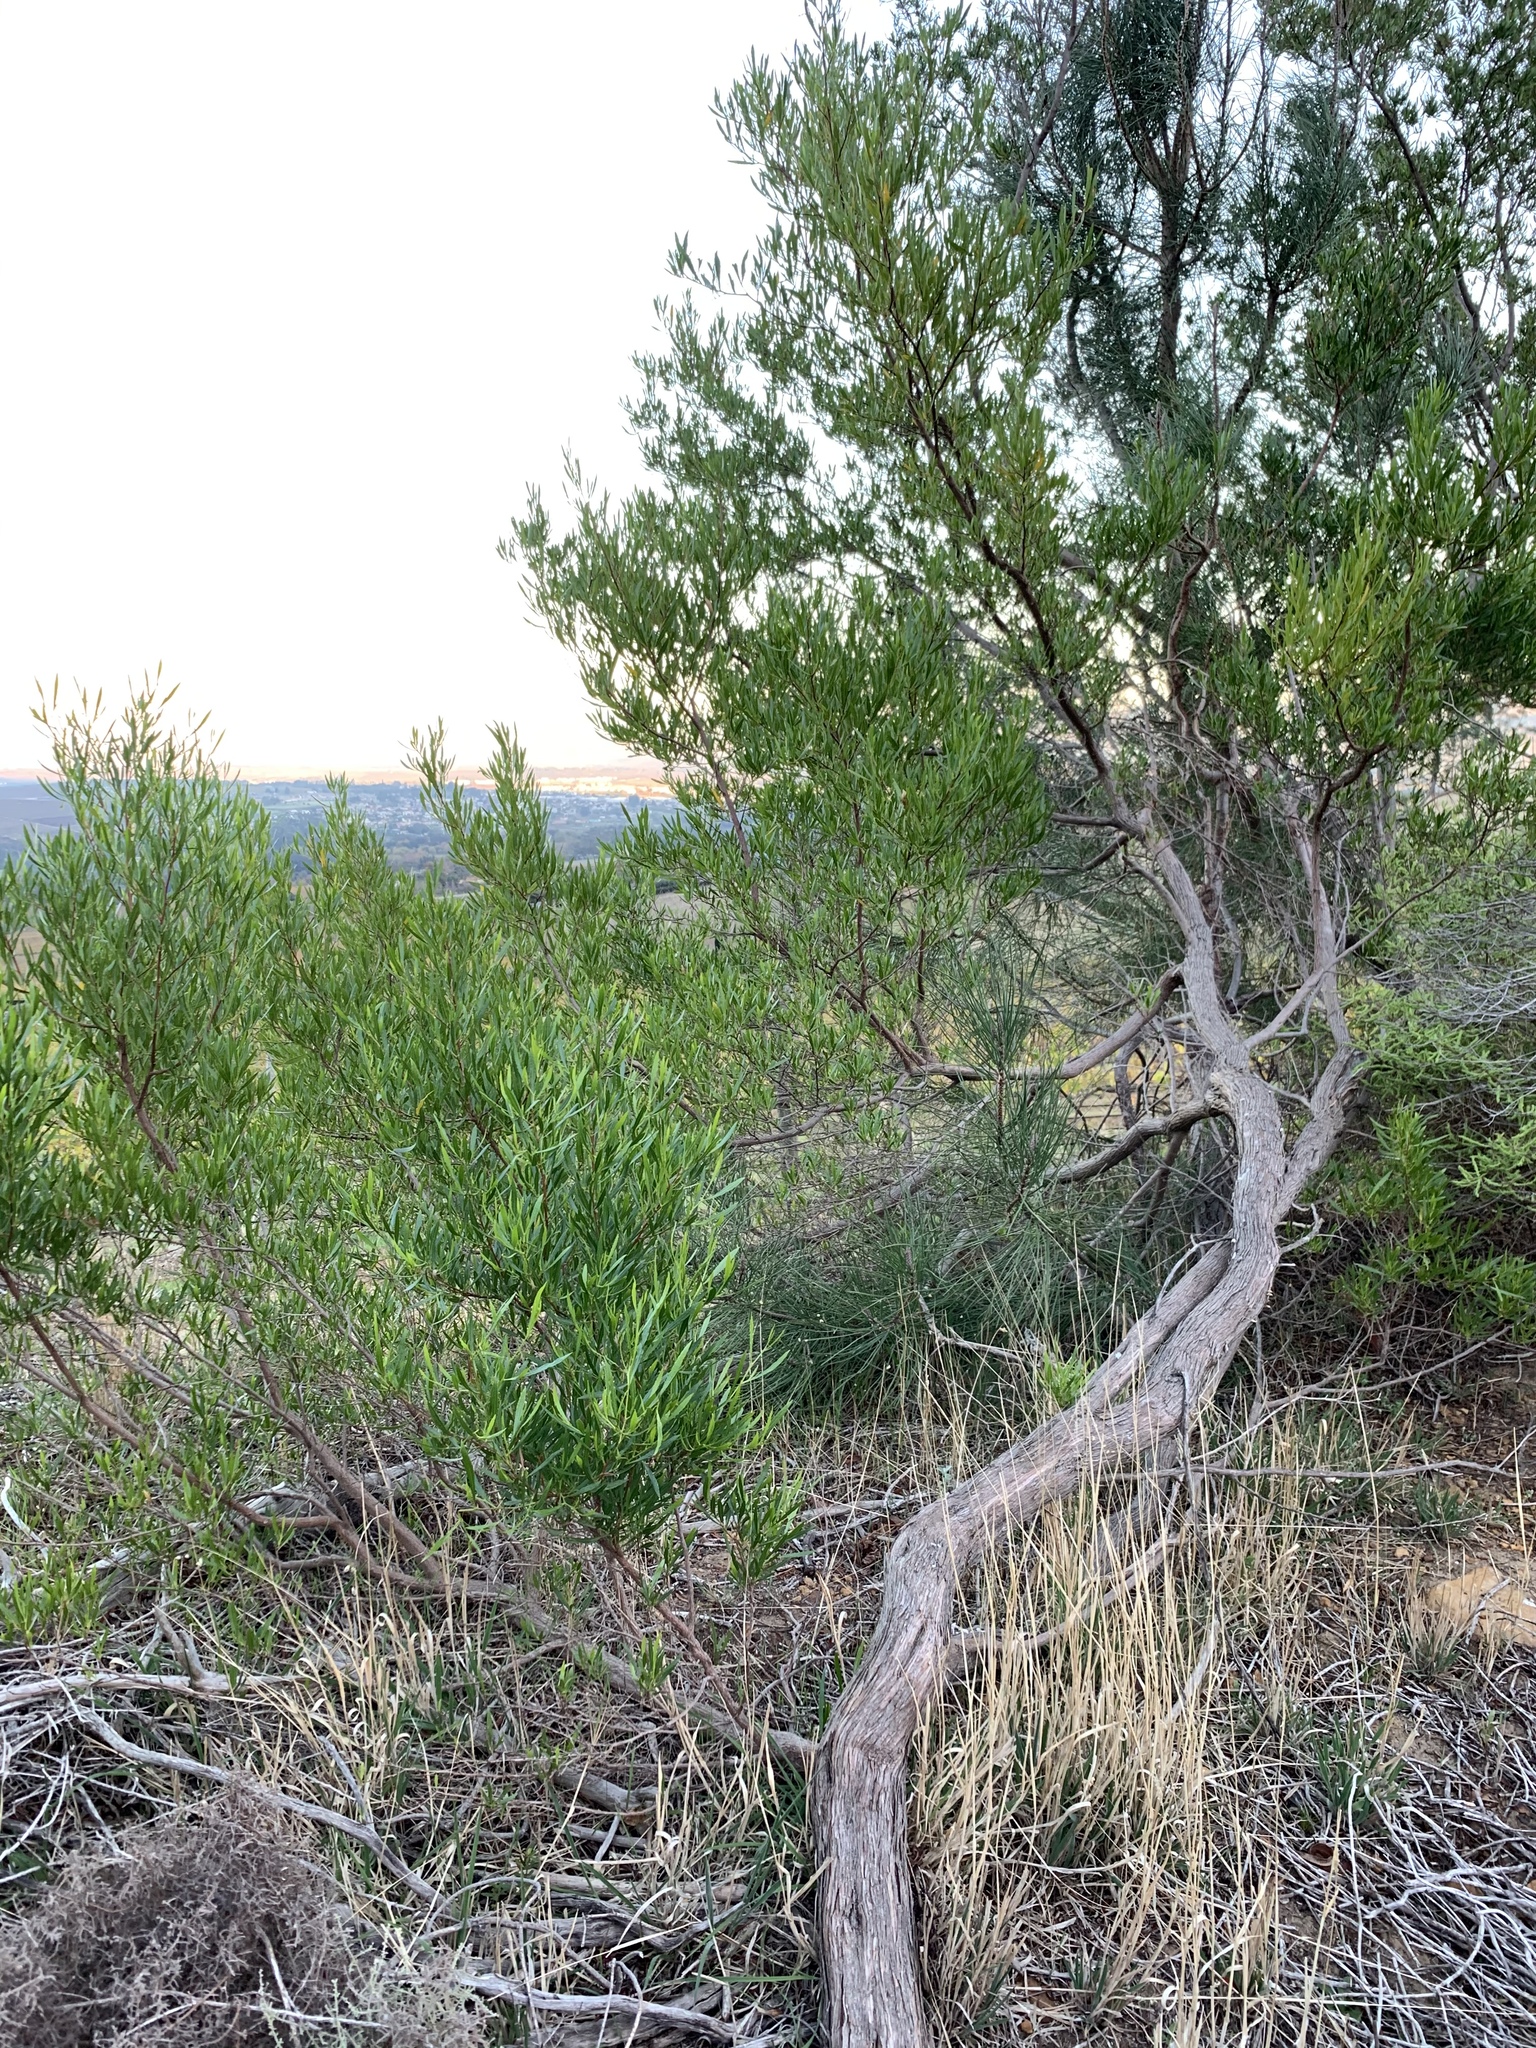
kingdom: Plantae
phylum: Tracheophyta
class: Magnoliopsida
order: Sapindales
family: Sapindaceae
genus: Dodonaea
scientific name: Dodonaea viscosa
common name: Hopbush
